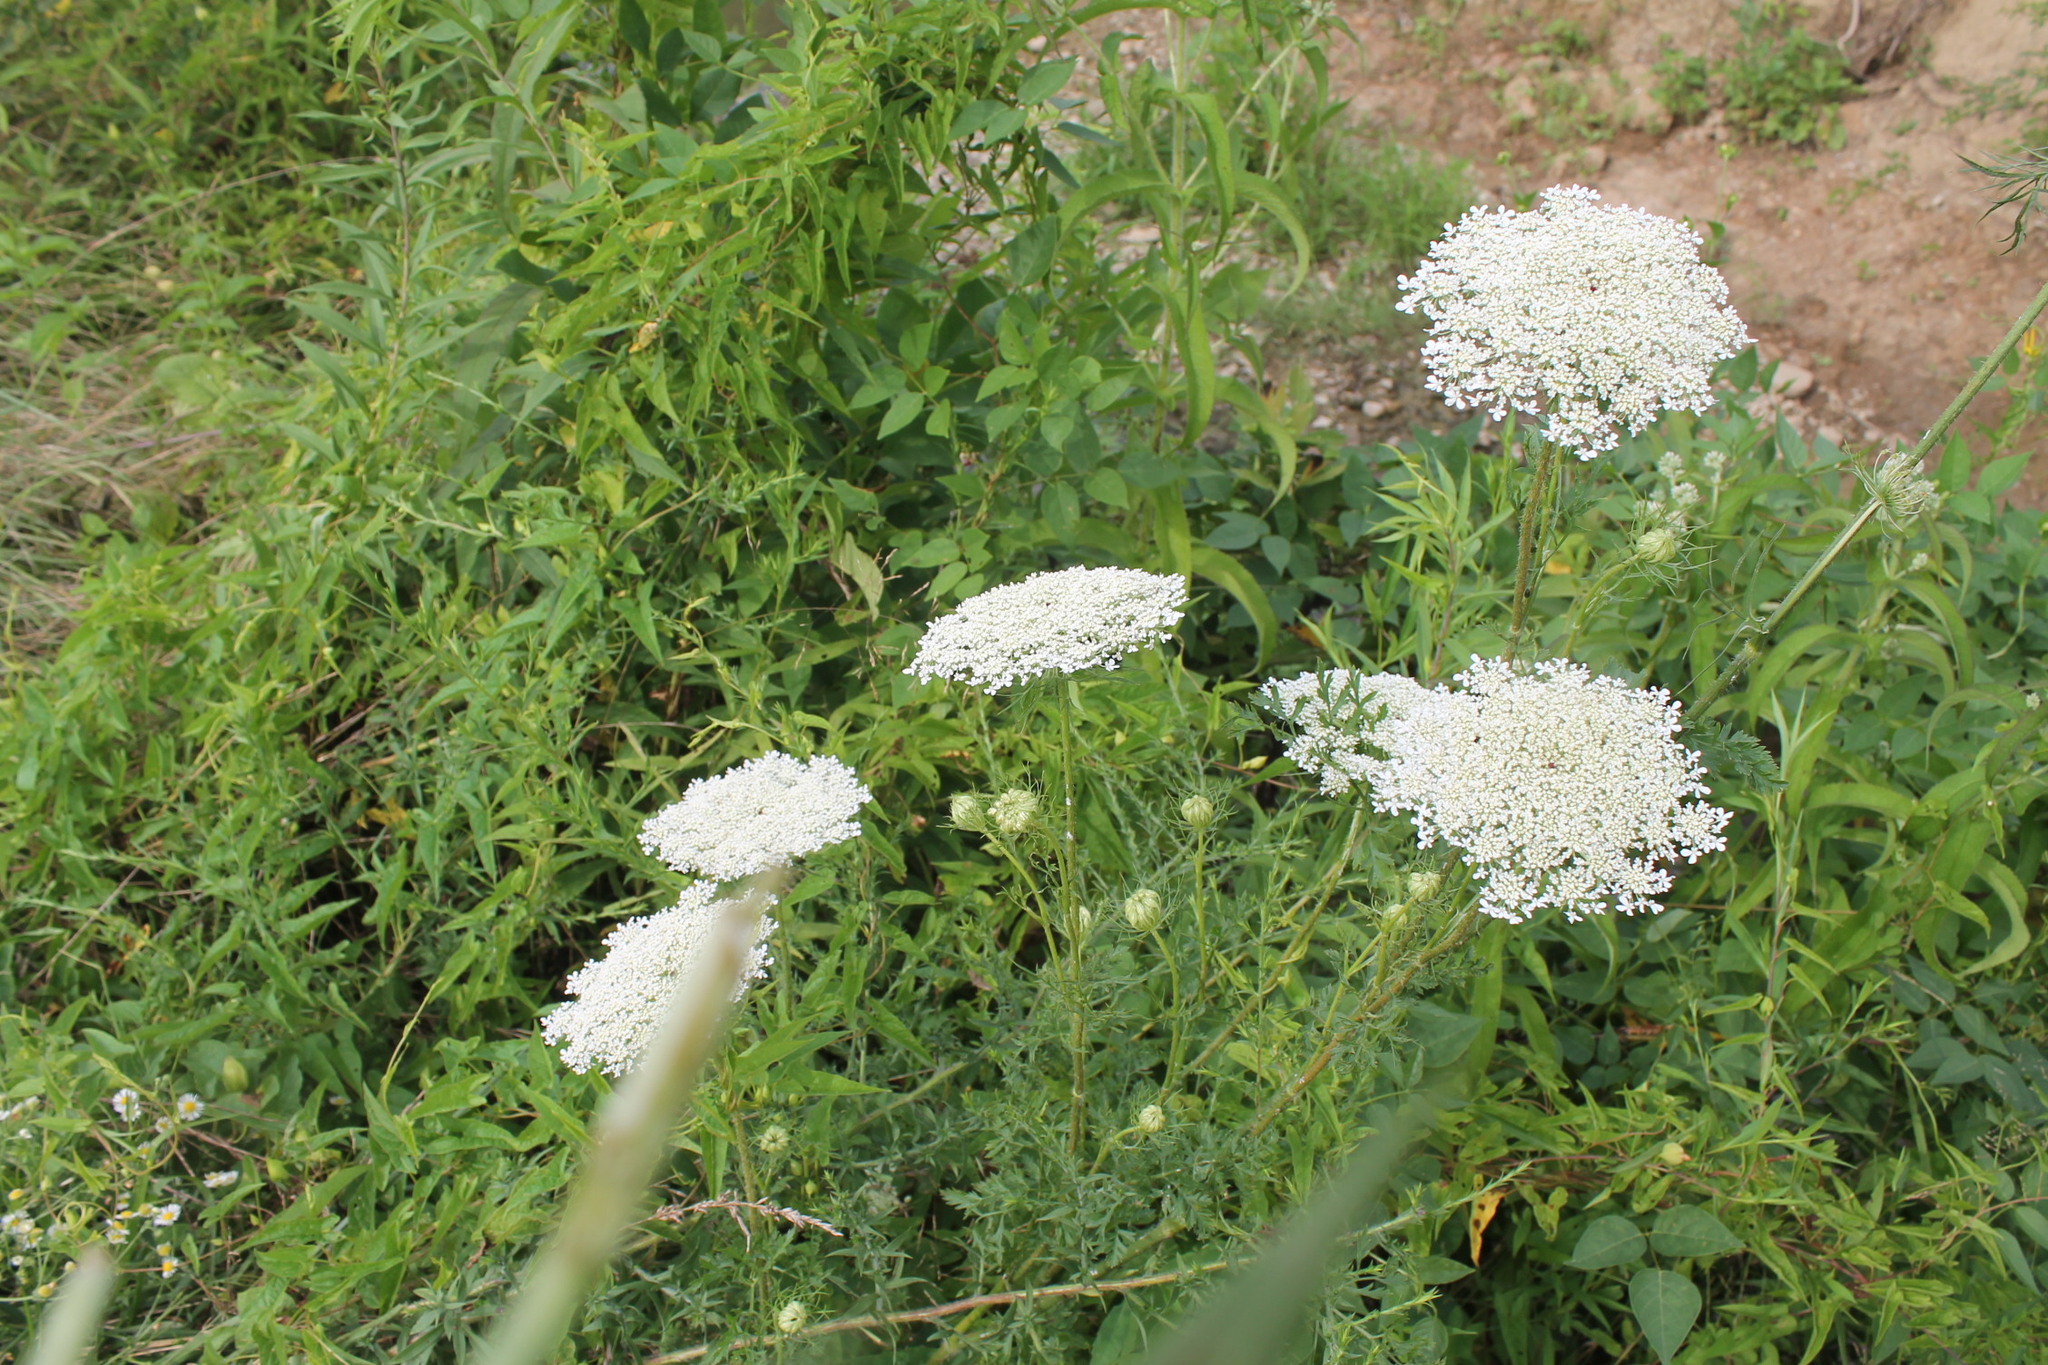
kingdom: Plantae
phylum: Tracheophyta
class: Magnoliopsida
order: Apiales
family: Apiaceae
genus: Daucus
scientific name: Daucus carota
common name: Wild carrot
